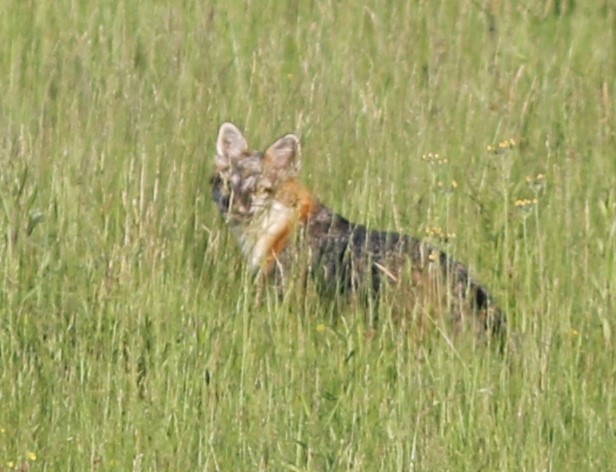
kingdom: Animalia
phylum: Chordata
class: Mammalia
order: Carnivora
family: Canidae
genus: Urocyon
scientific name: Urocyon cinereoargenteus
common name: Gray fox
